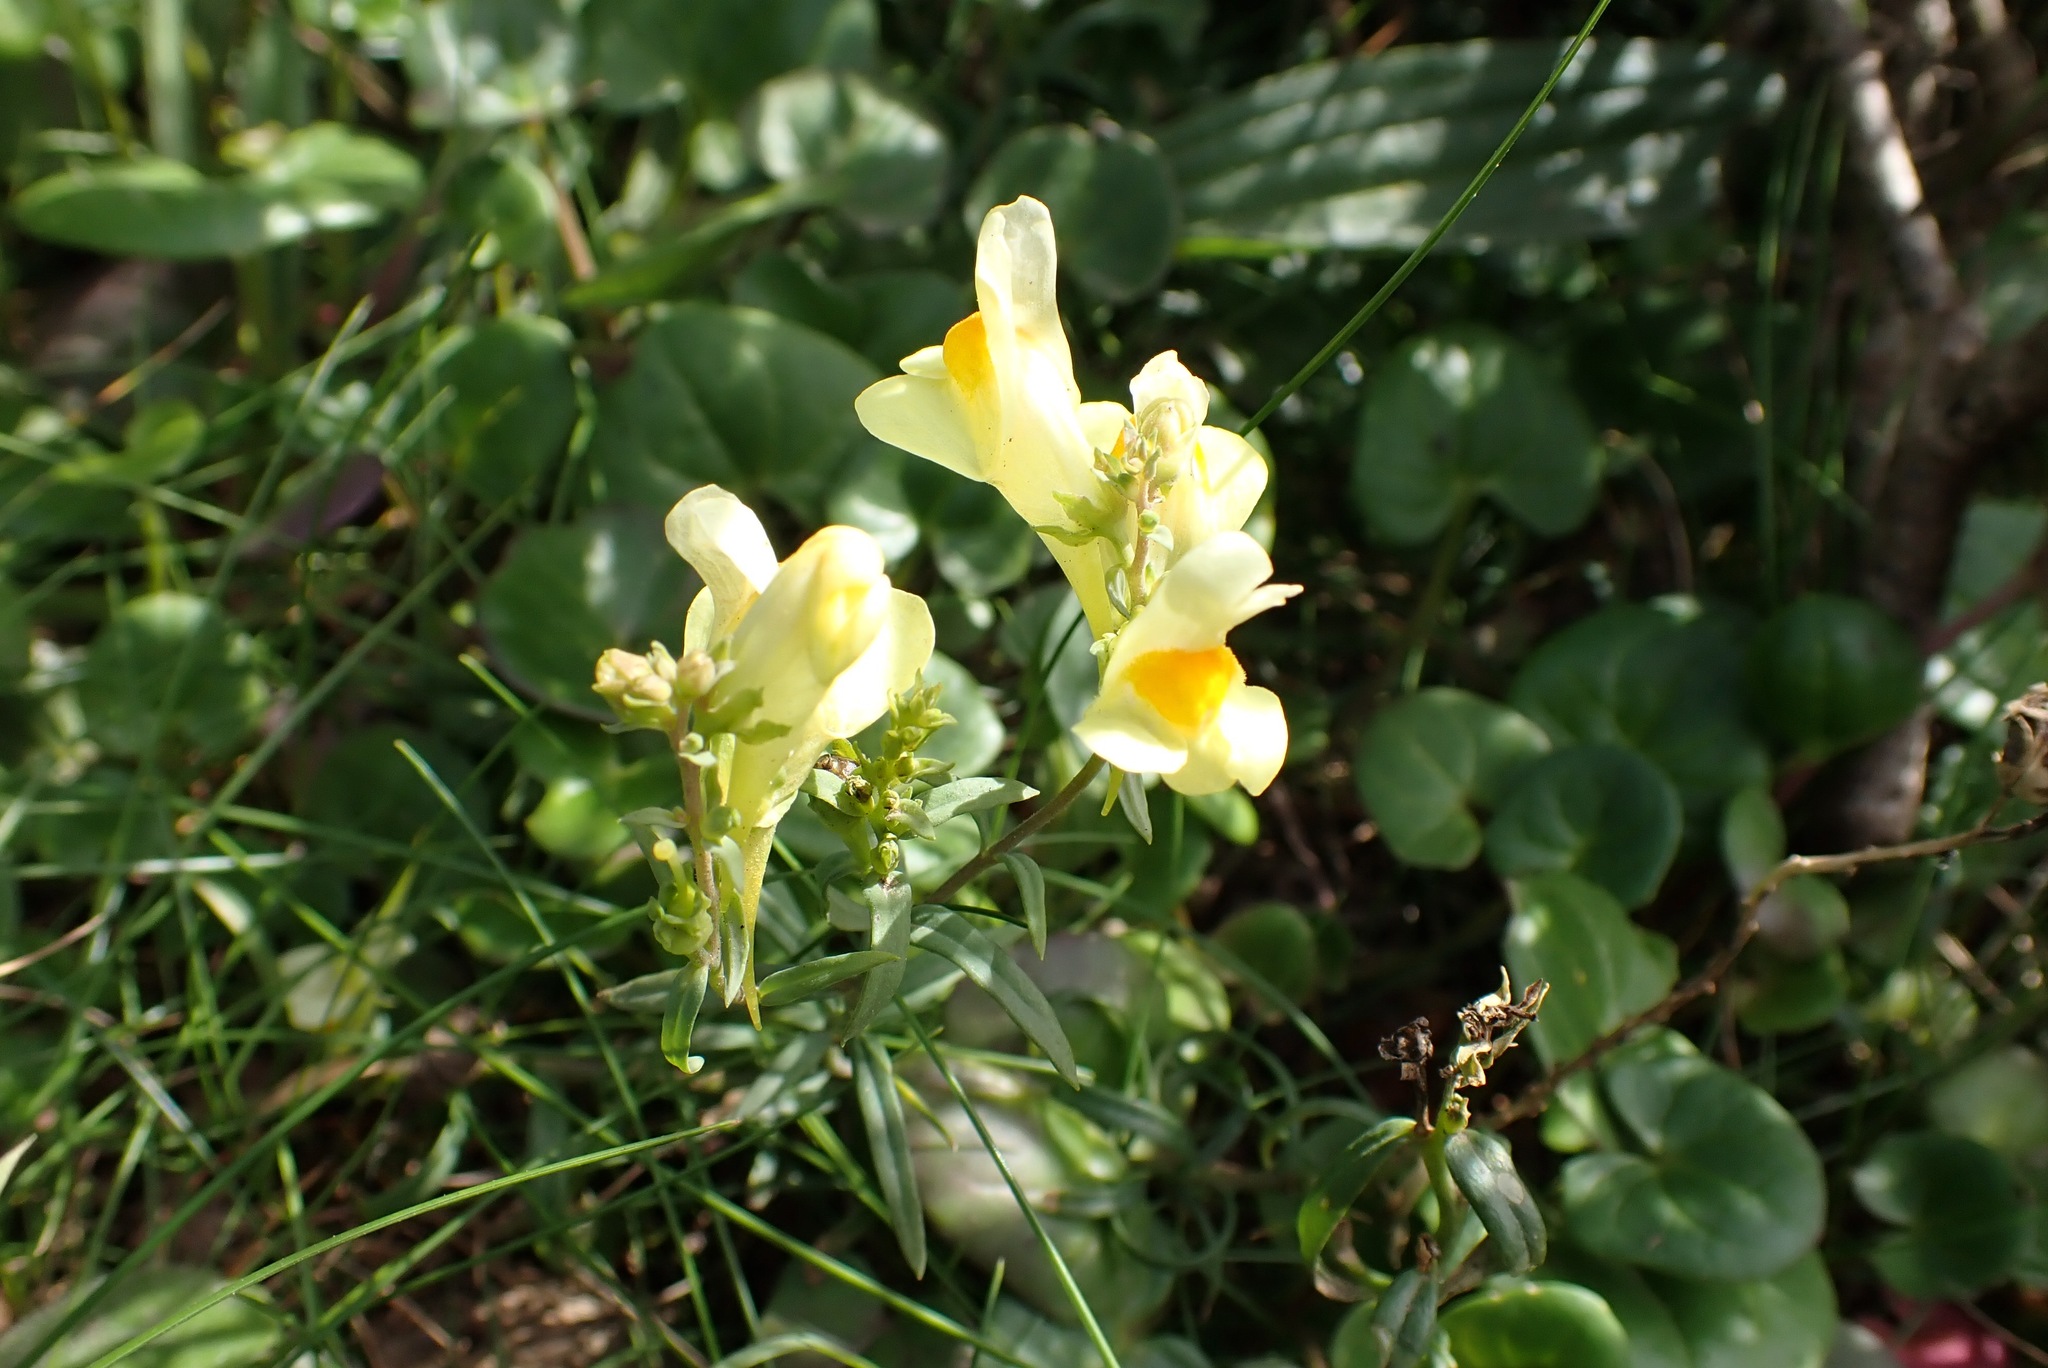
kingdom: Plantae
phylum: Tracheophyta
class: Magnoliopsida
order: Lamiales
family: Plantaginaceae
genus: Linaria
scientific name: Linaria vulgaris
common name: Butter and eggs
